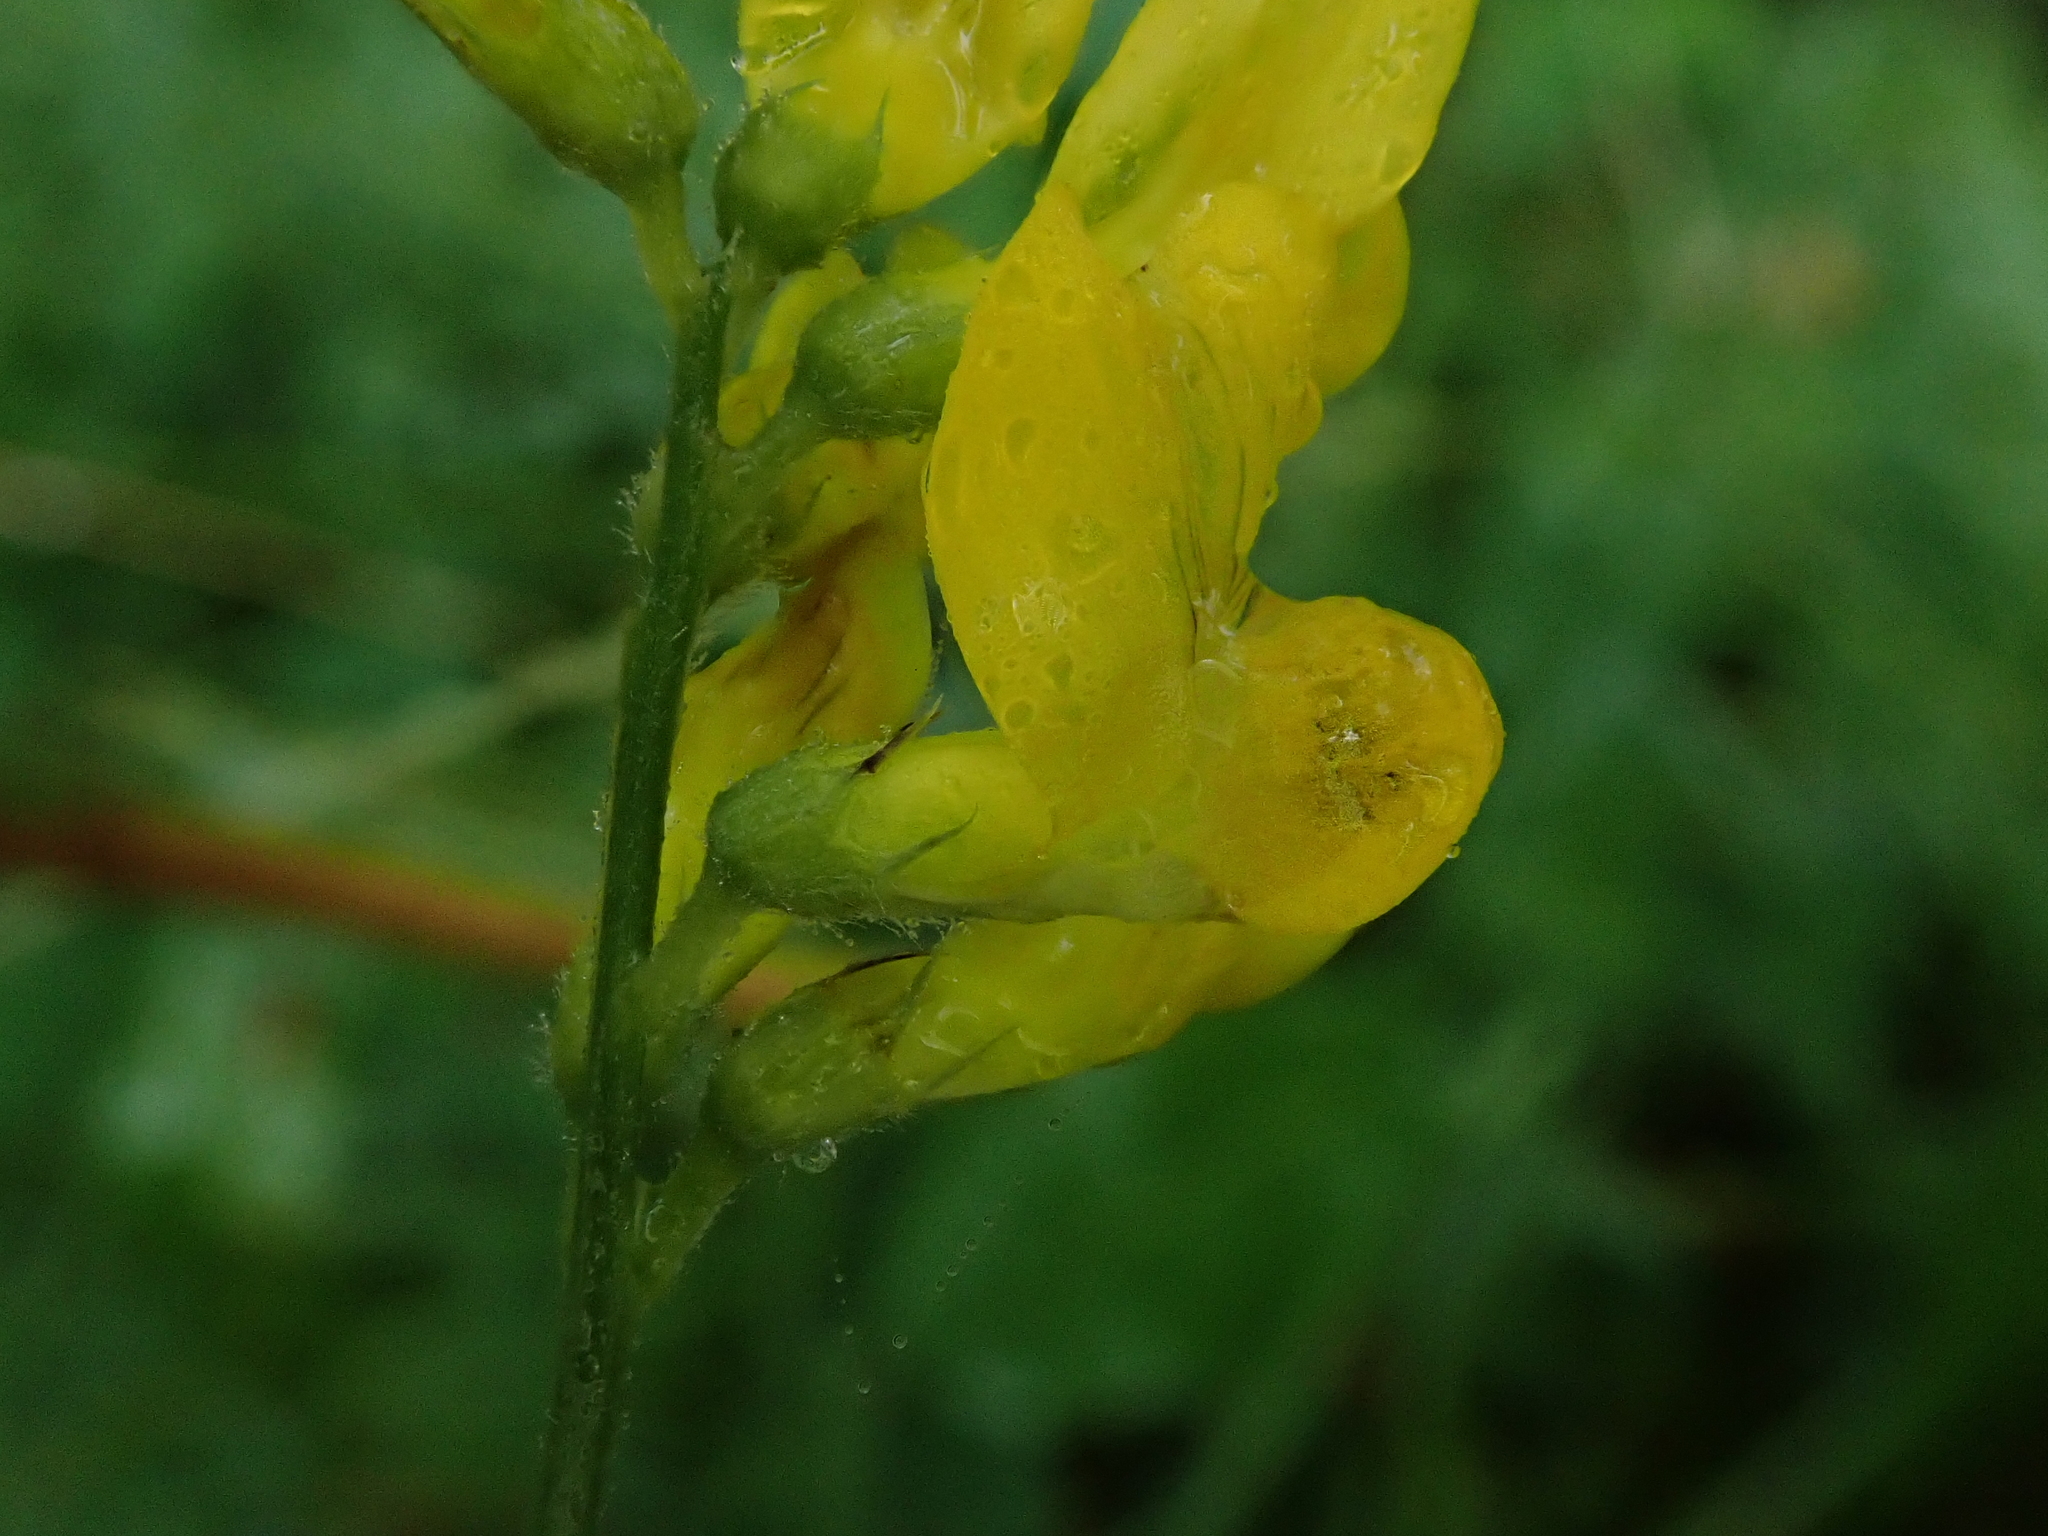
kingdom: Plantae
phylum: Tracheophyta
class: Magnoliopsida
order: Fabales
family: Fabaceae
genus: Lathyrus
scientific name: Lathyrus pratensis
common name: Meadow vetchling
